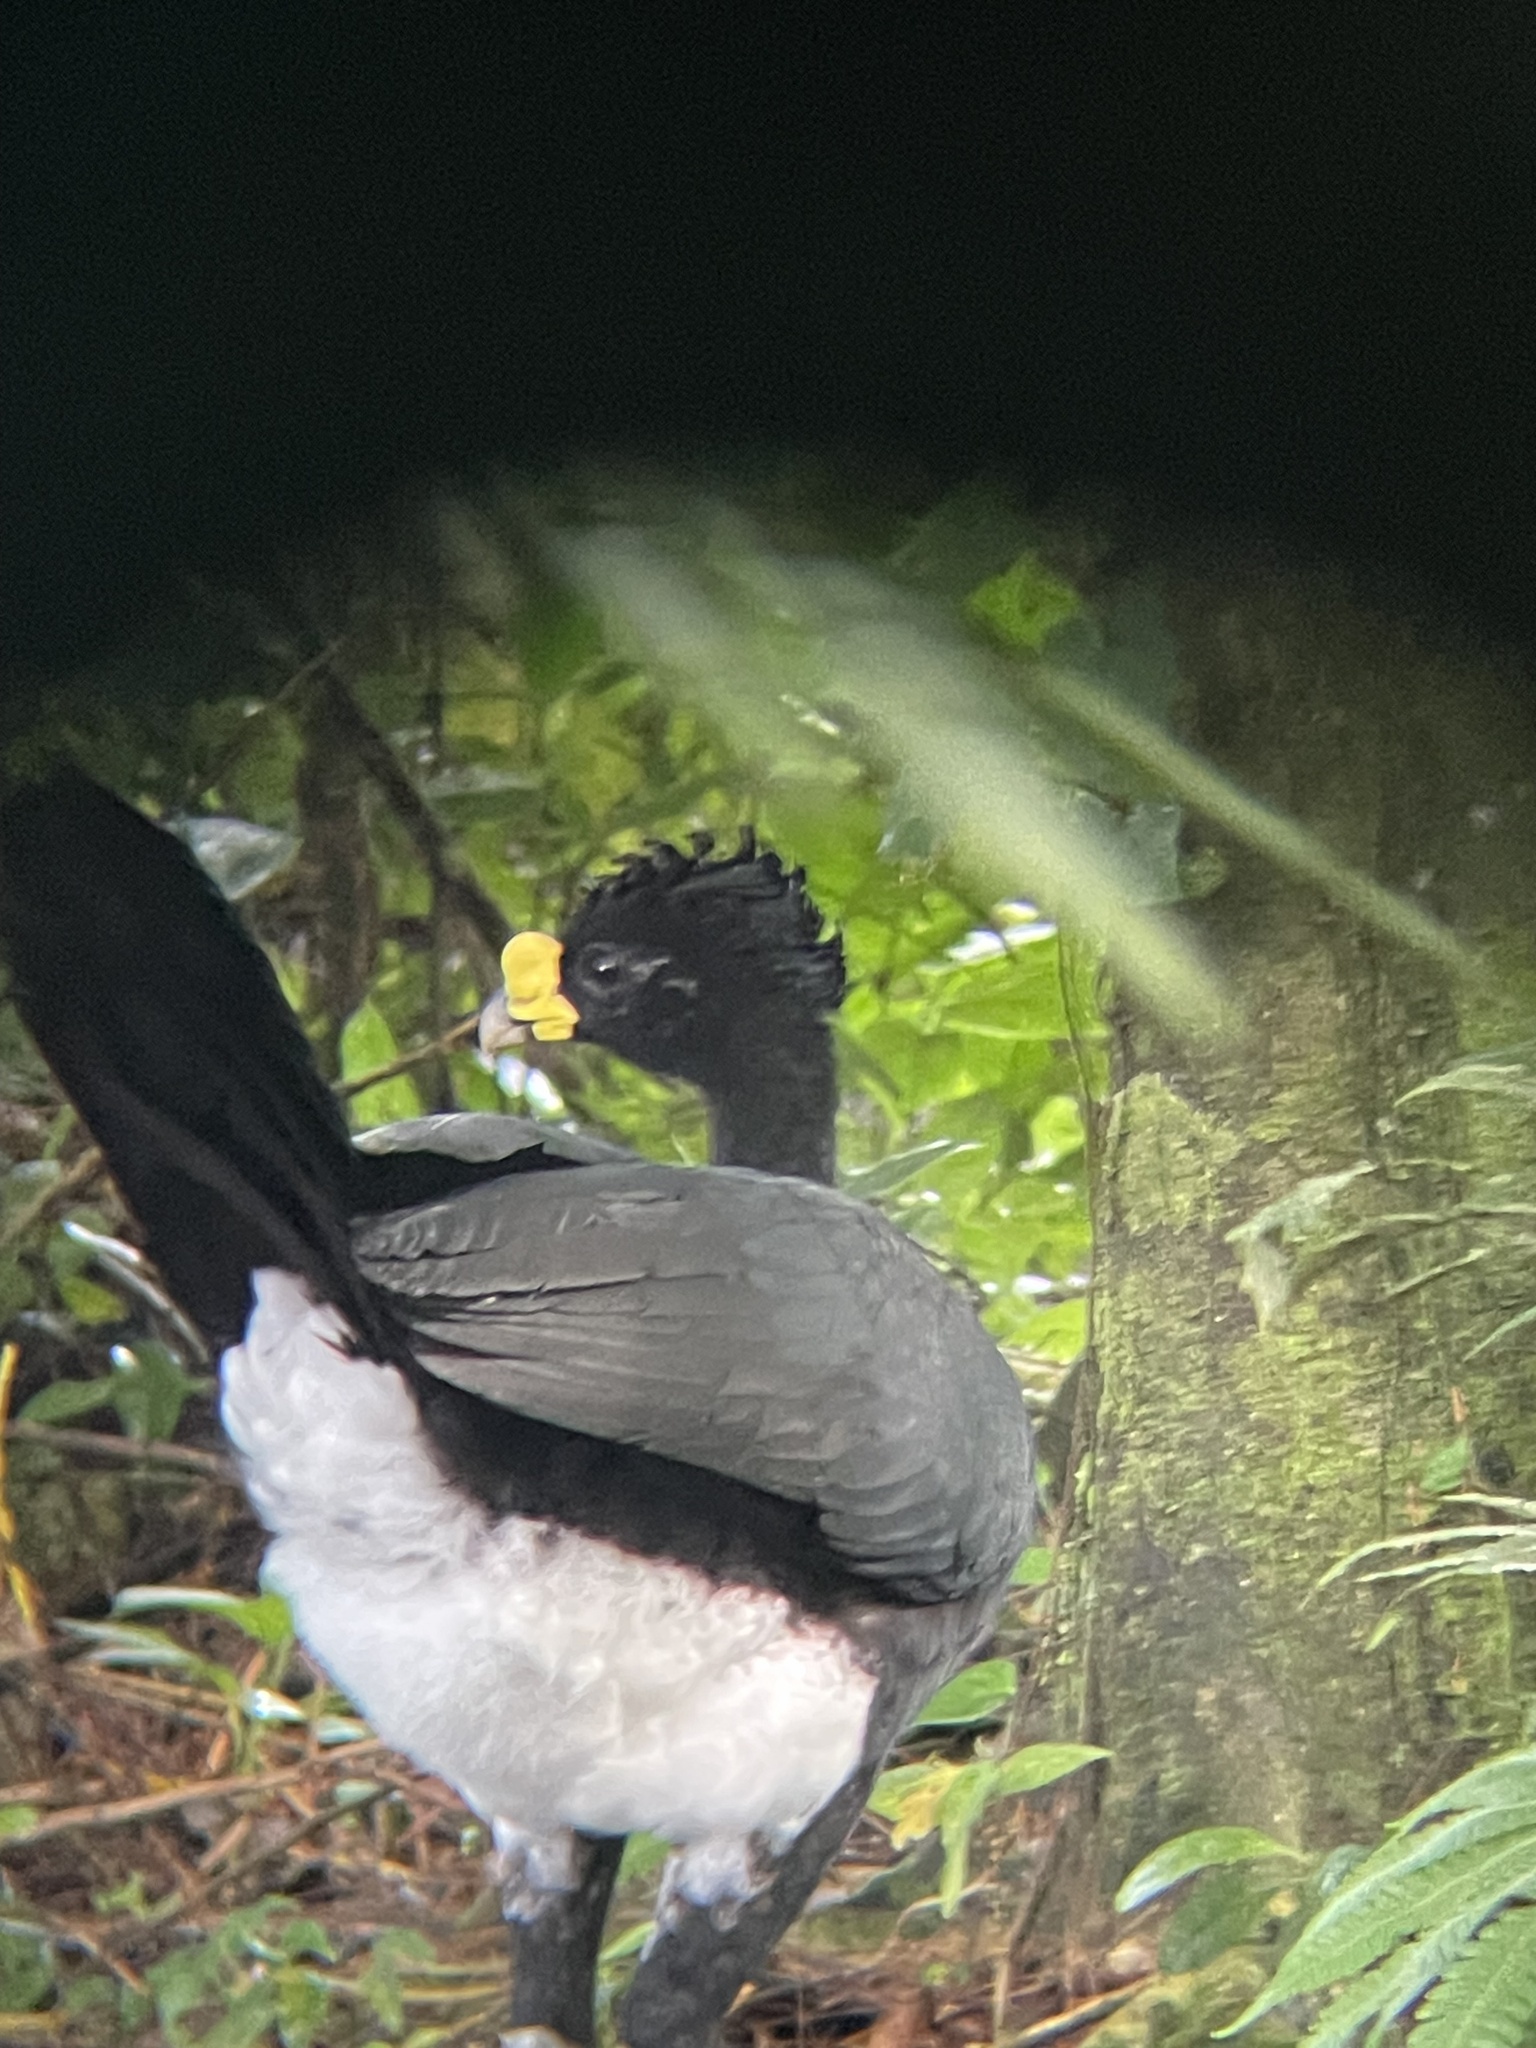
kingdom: Animalia
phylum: Chordata
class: Aves
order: Galliformes
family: Cracidae
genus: Crax
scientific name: Crax rubra
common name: Great curassow
